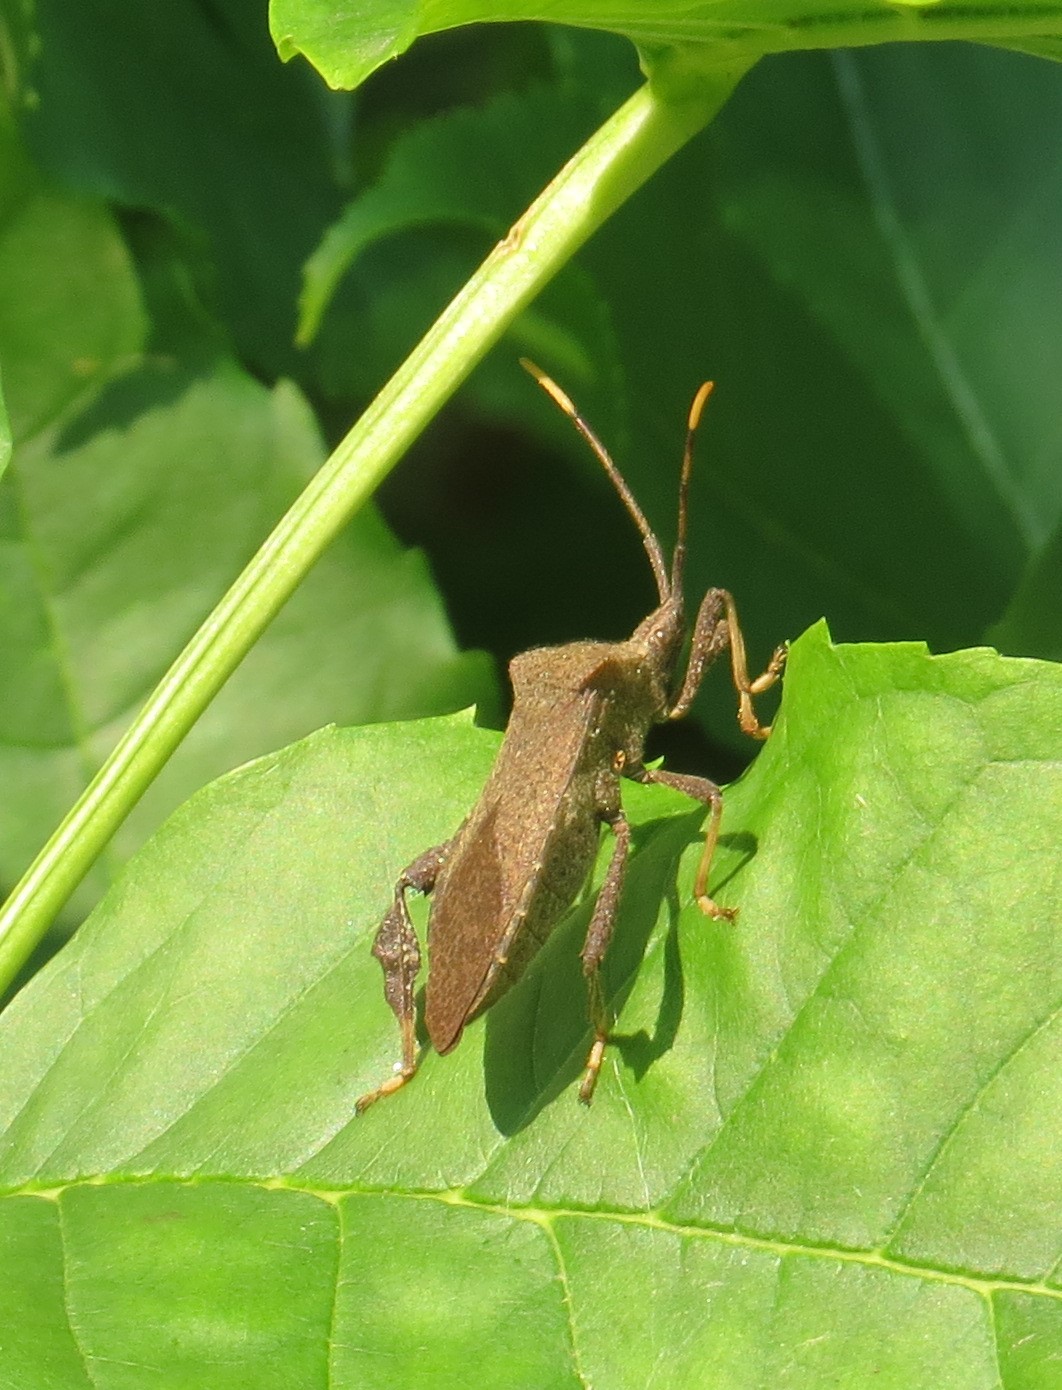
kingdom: Animalia
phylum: Arthropoda
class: Insecta
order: Hemiptera
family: Coreidae
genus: Acanthocephala
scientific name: Acanthocephala terminalis
